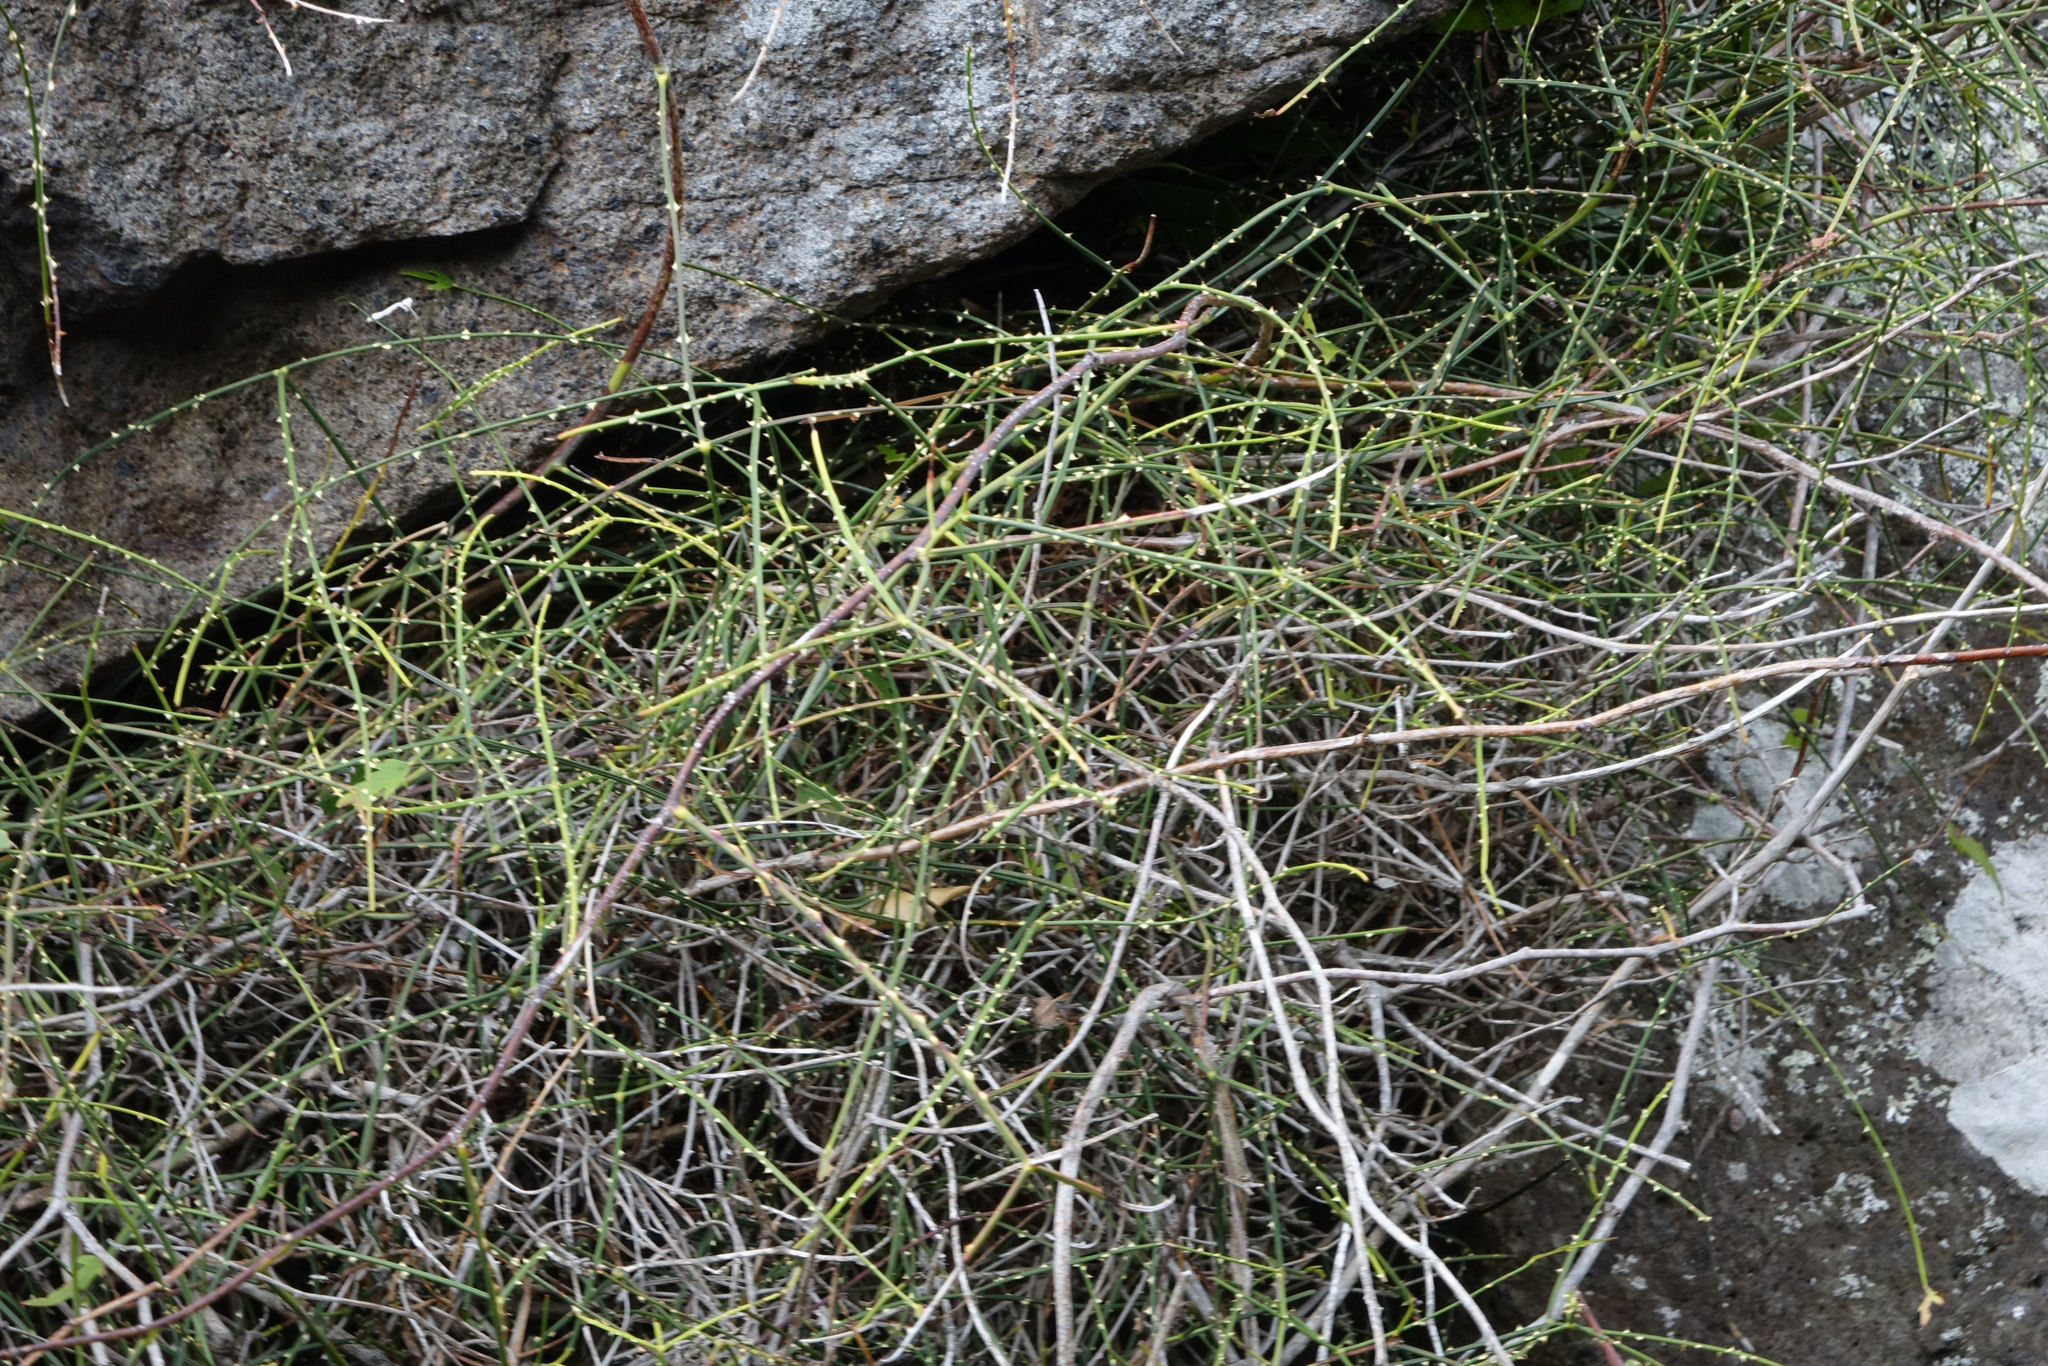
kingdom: Plantae
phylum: Tracheophyta
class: Magnoliopsida
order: Rosales
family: Rosaceae
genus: Rubus
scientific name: Rubus squarrosus
